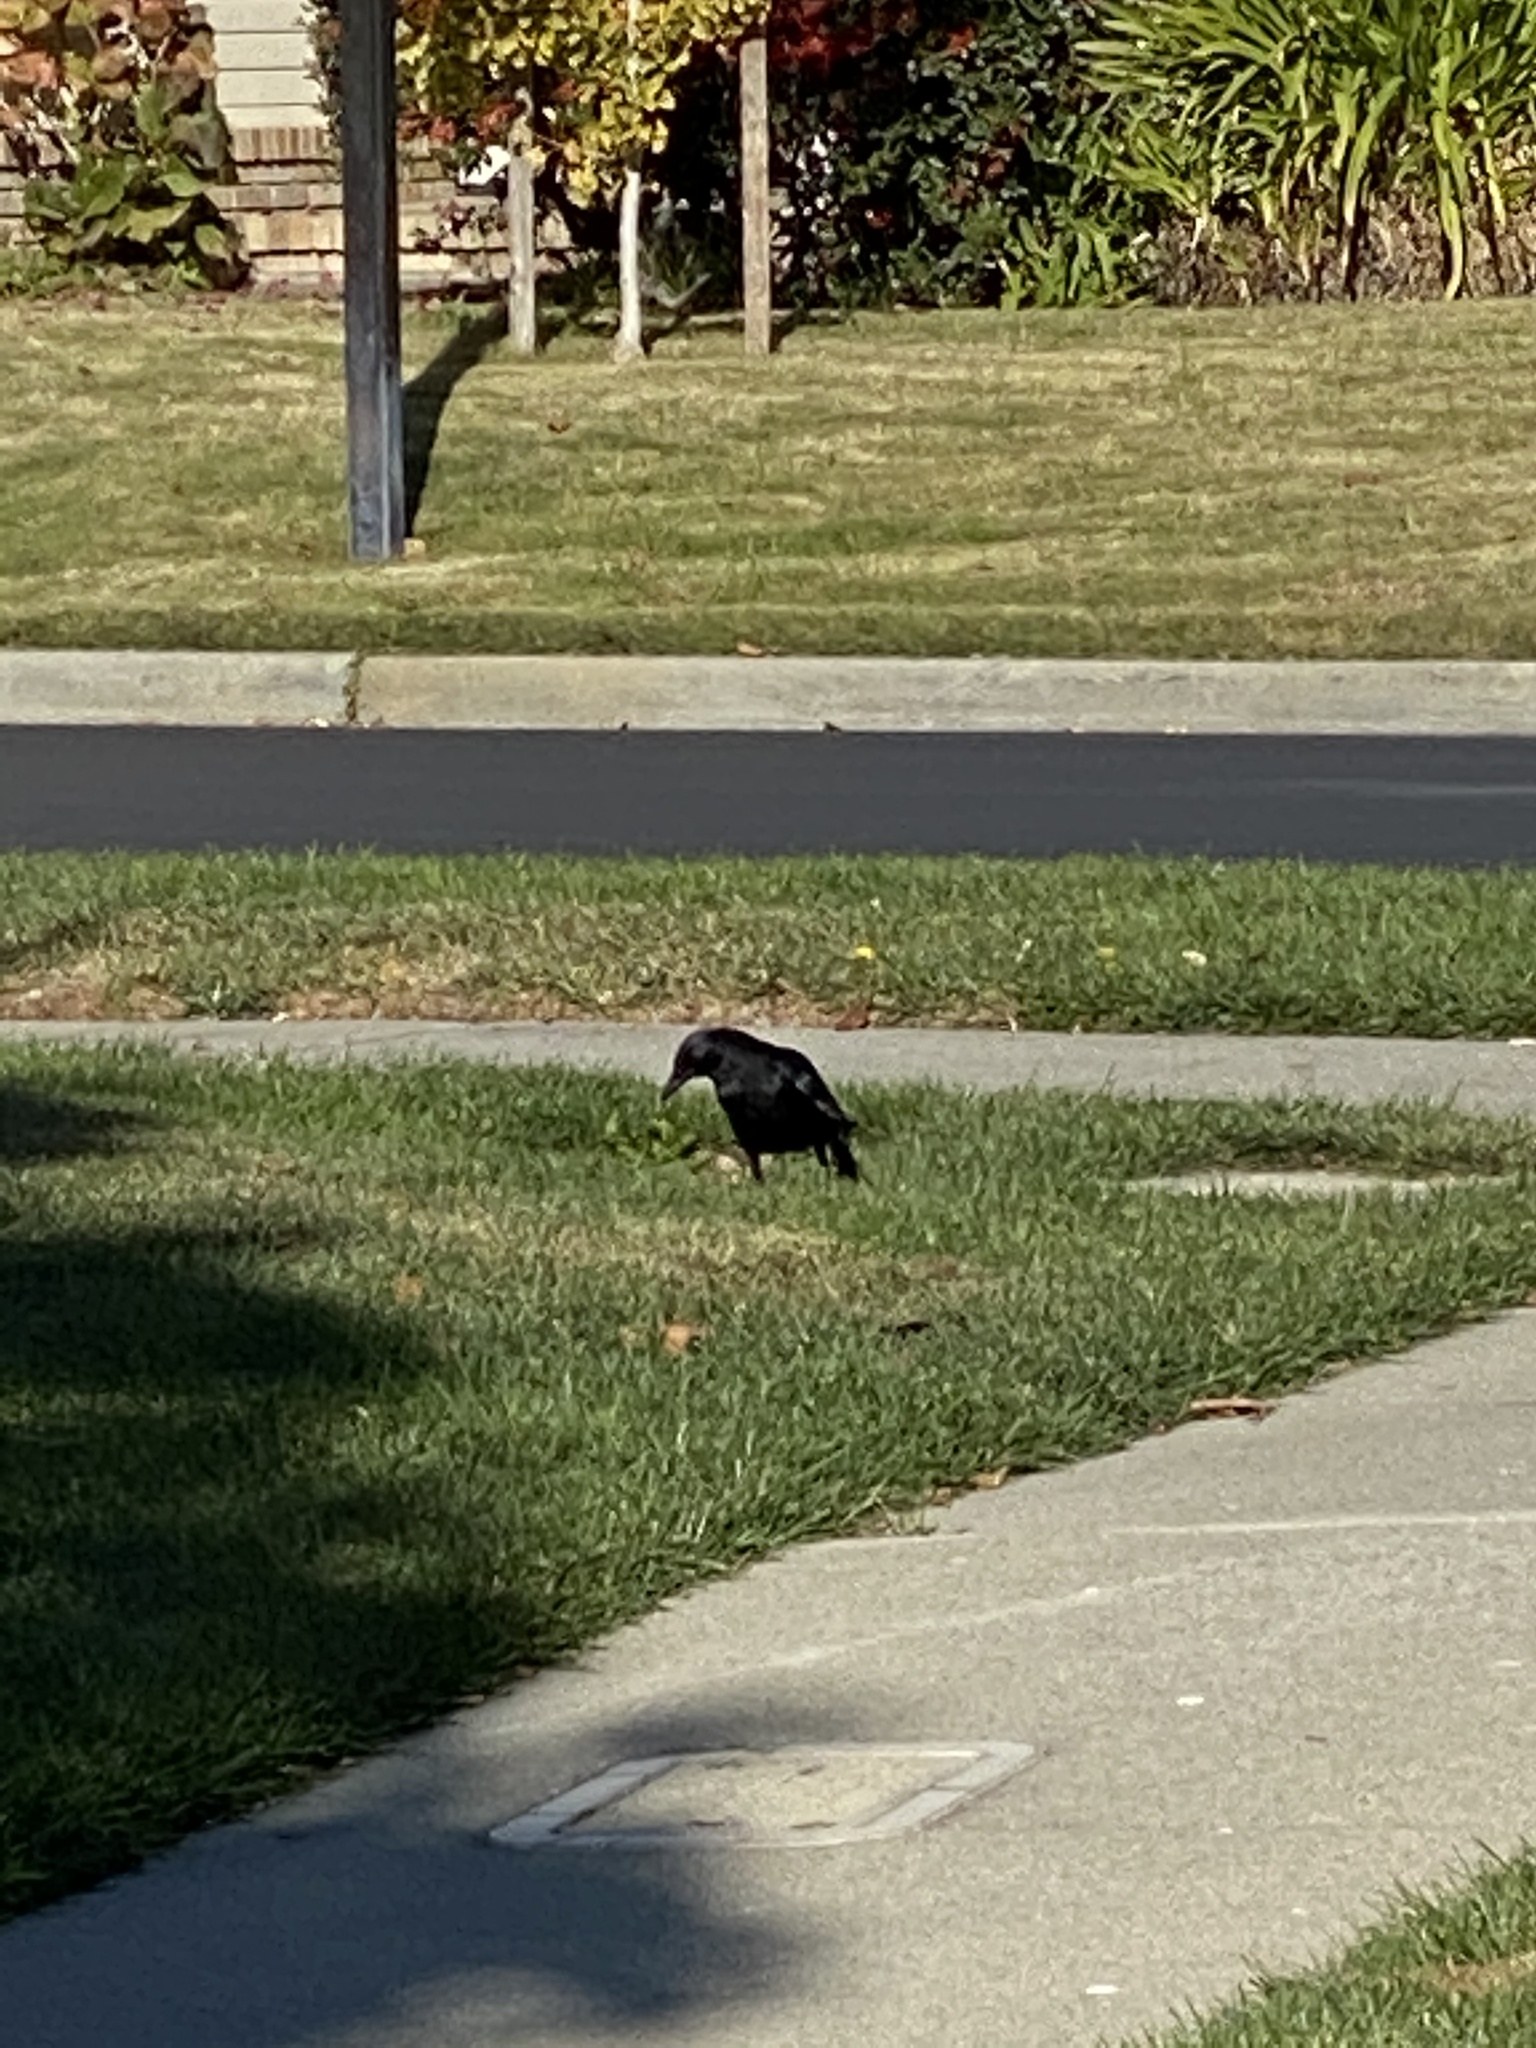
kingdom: Animalia
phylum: Chordata
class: Aves
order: Passeriformes
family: Corvidae
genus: Corvus
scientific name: Corvus brachyrhynchos
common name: American crow
